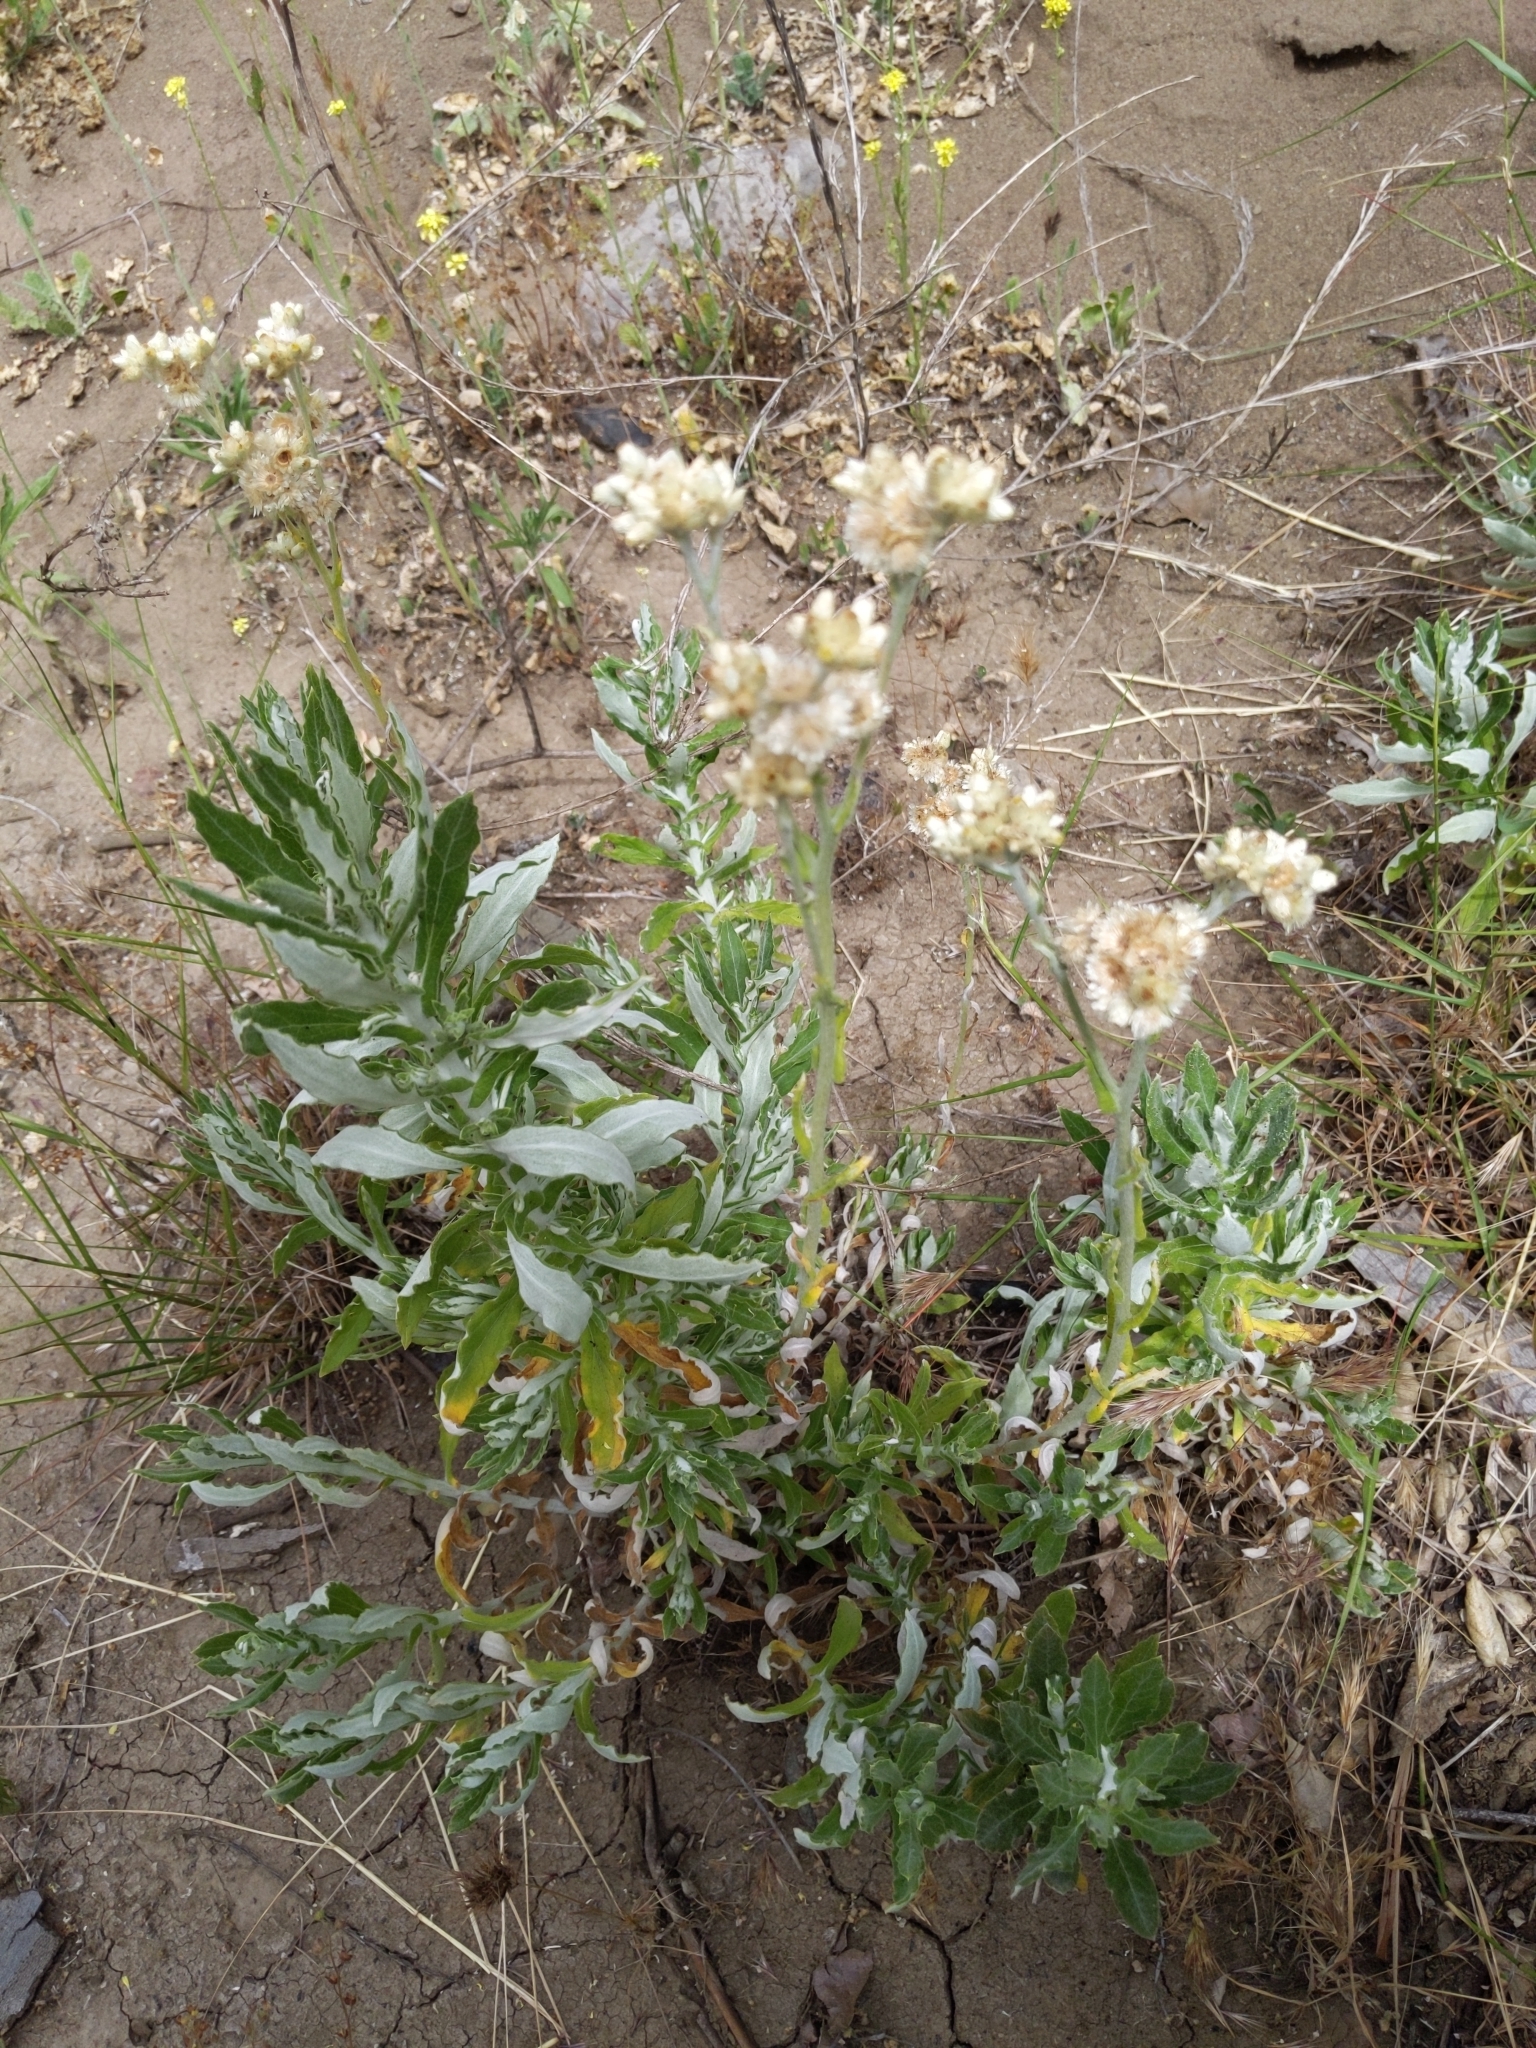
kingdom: Plantae
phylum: Tracheophyta
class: Magnoliopsida
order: Asterales
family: Asteraceae
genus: Pseudognaphalium
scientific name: Pseudognaphalium biolettii
